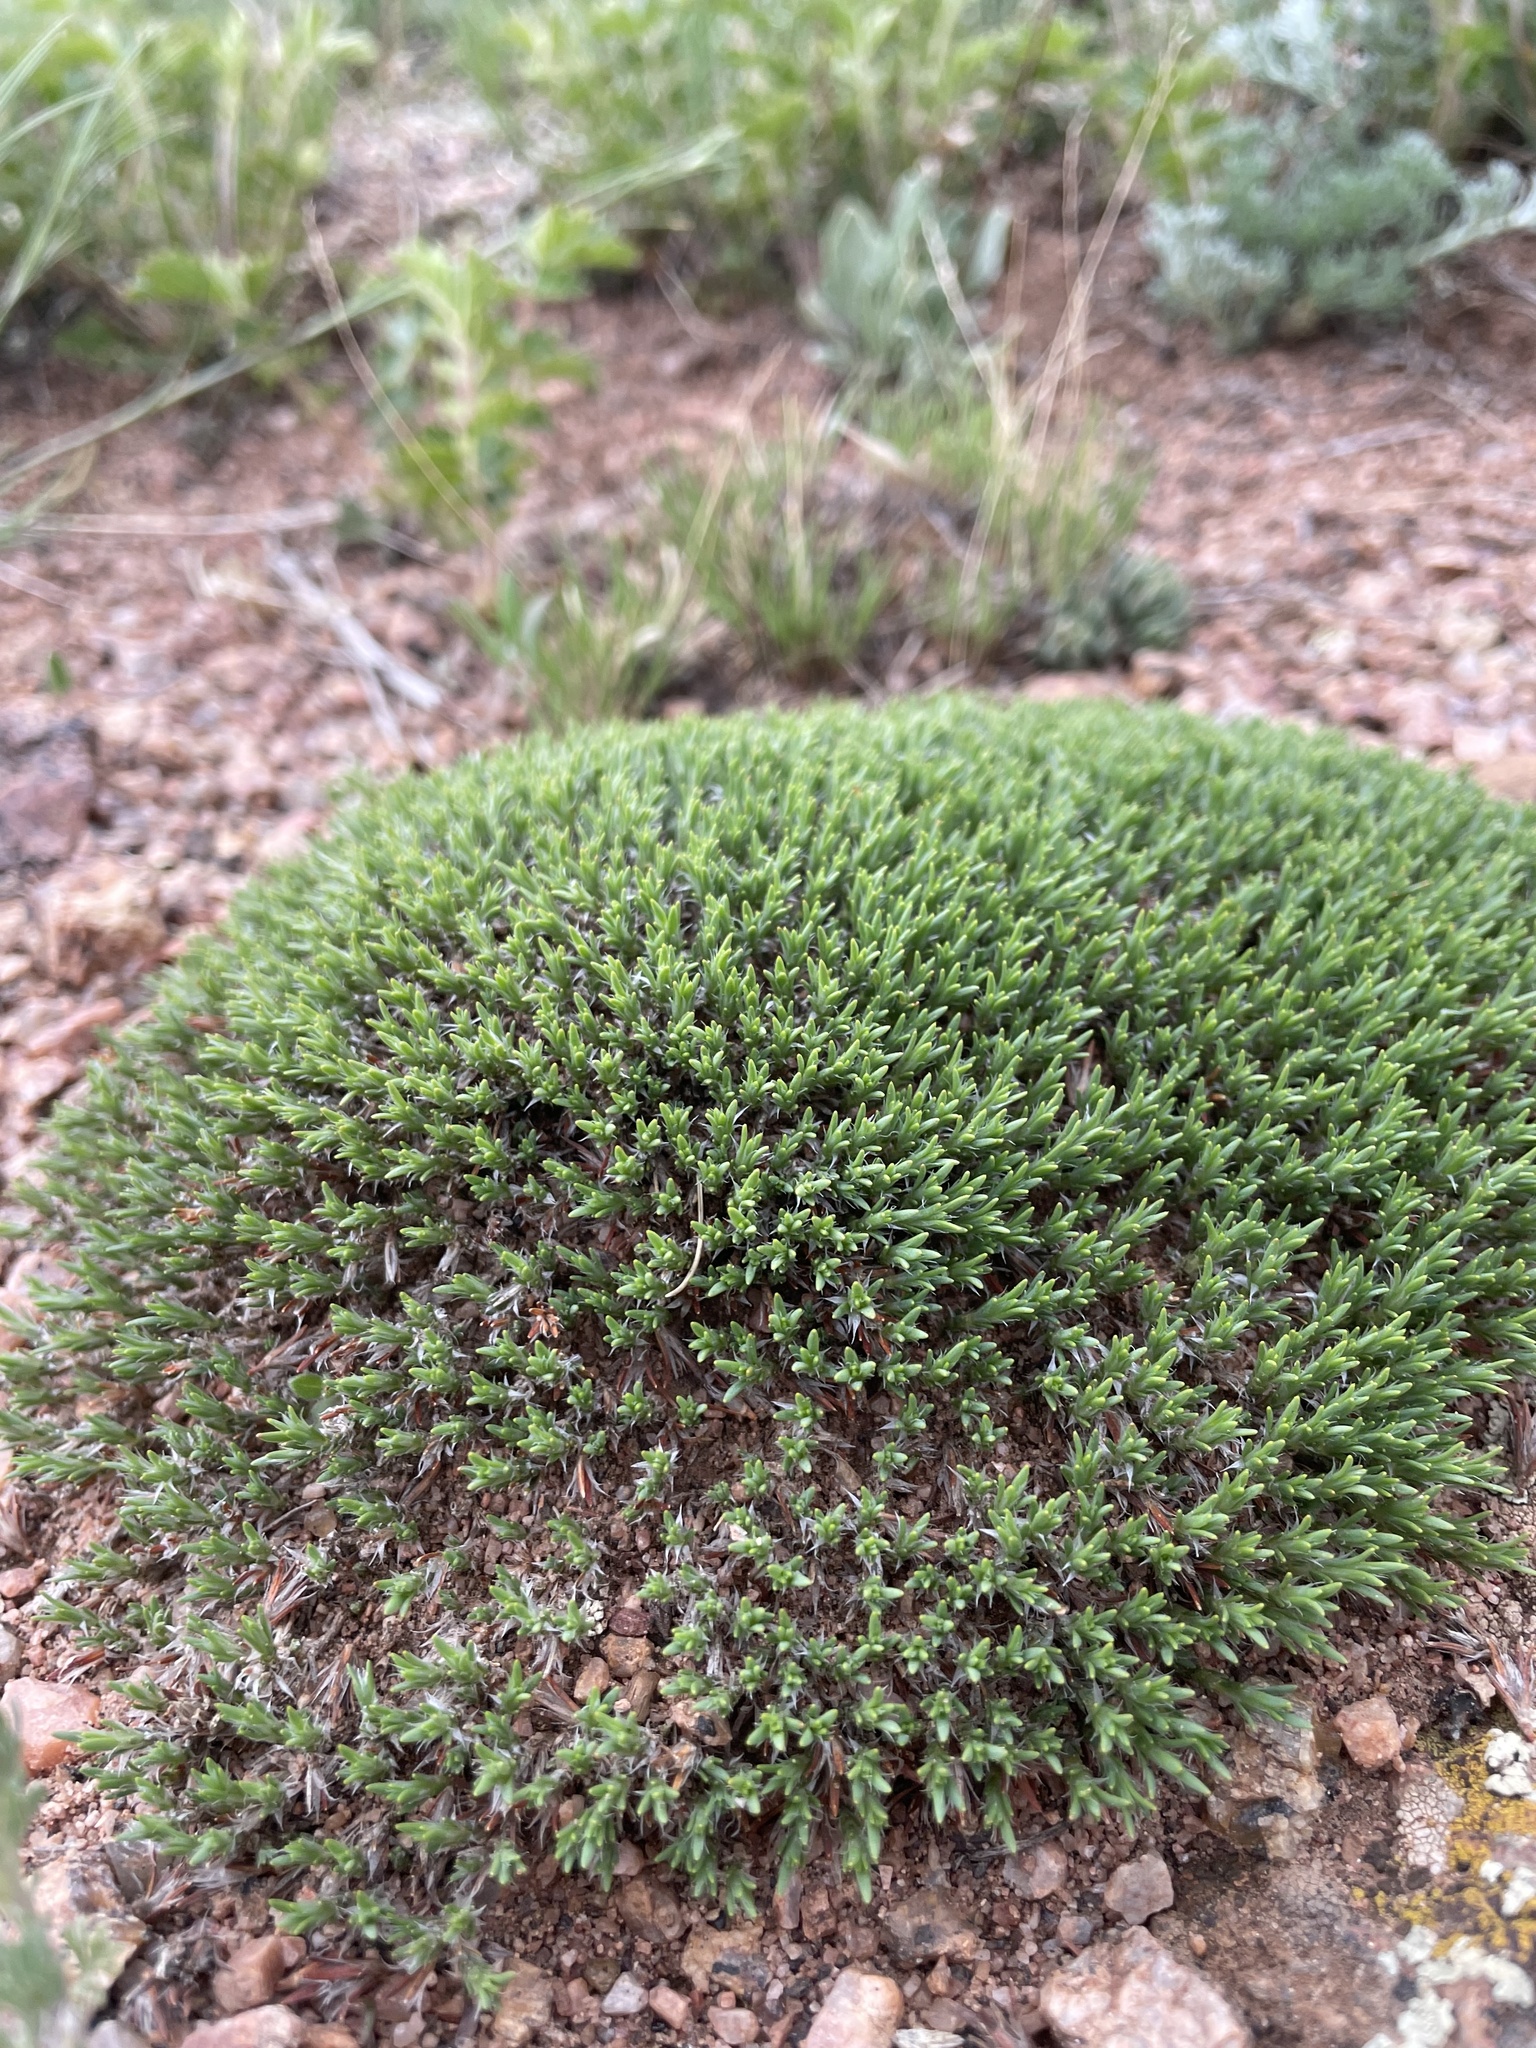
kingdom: Plantae
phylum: Tracheophyta
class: Magnoliopsida
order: Caryophyllales
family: Caryophyllaceae
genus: Paronychia
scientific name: Paronychia sessiliflora
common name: Creeping nailwort
